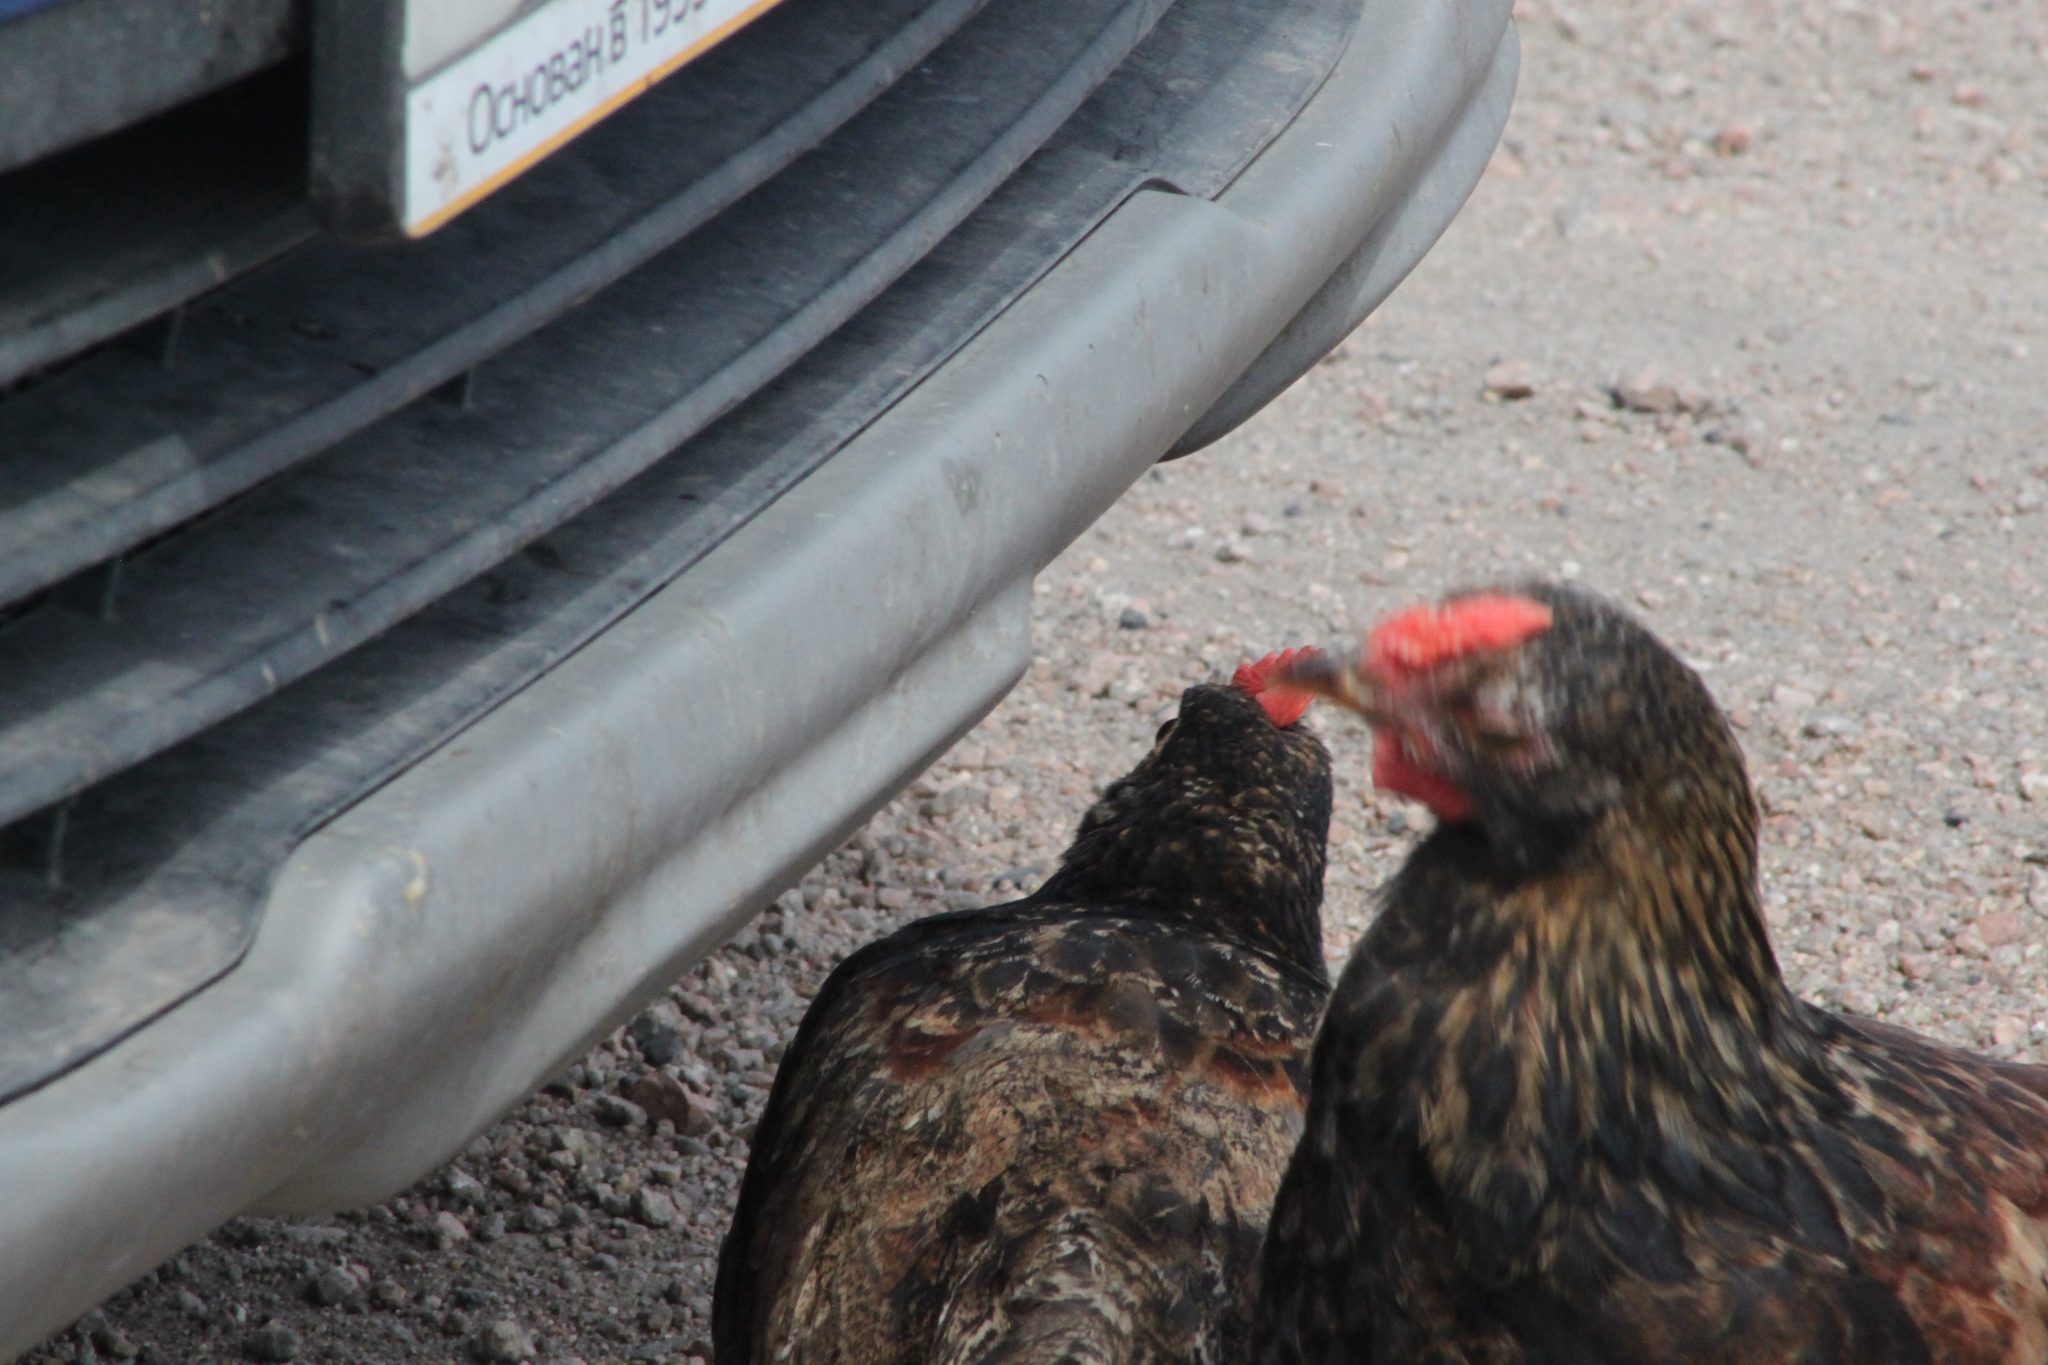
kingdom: Animalia
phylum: Chordata
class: Aves
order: Galliformes
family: Phasianidae
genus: Gallus
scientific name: Gallus gallus
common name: Red junglefowl
